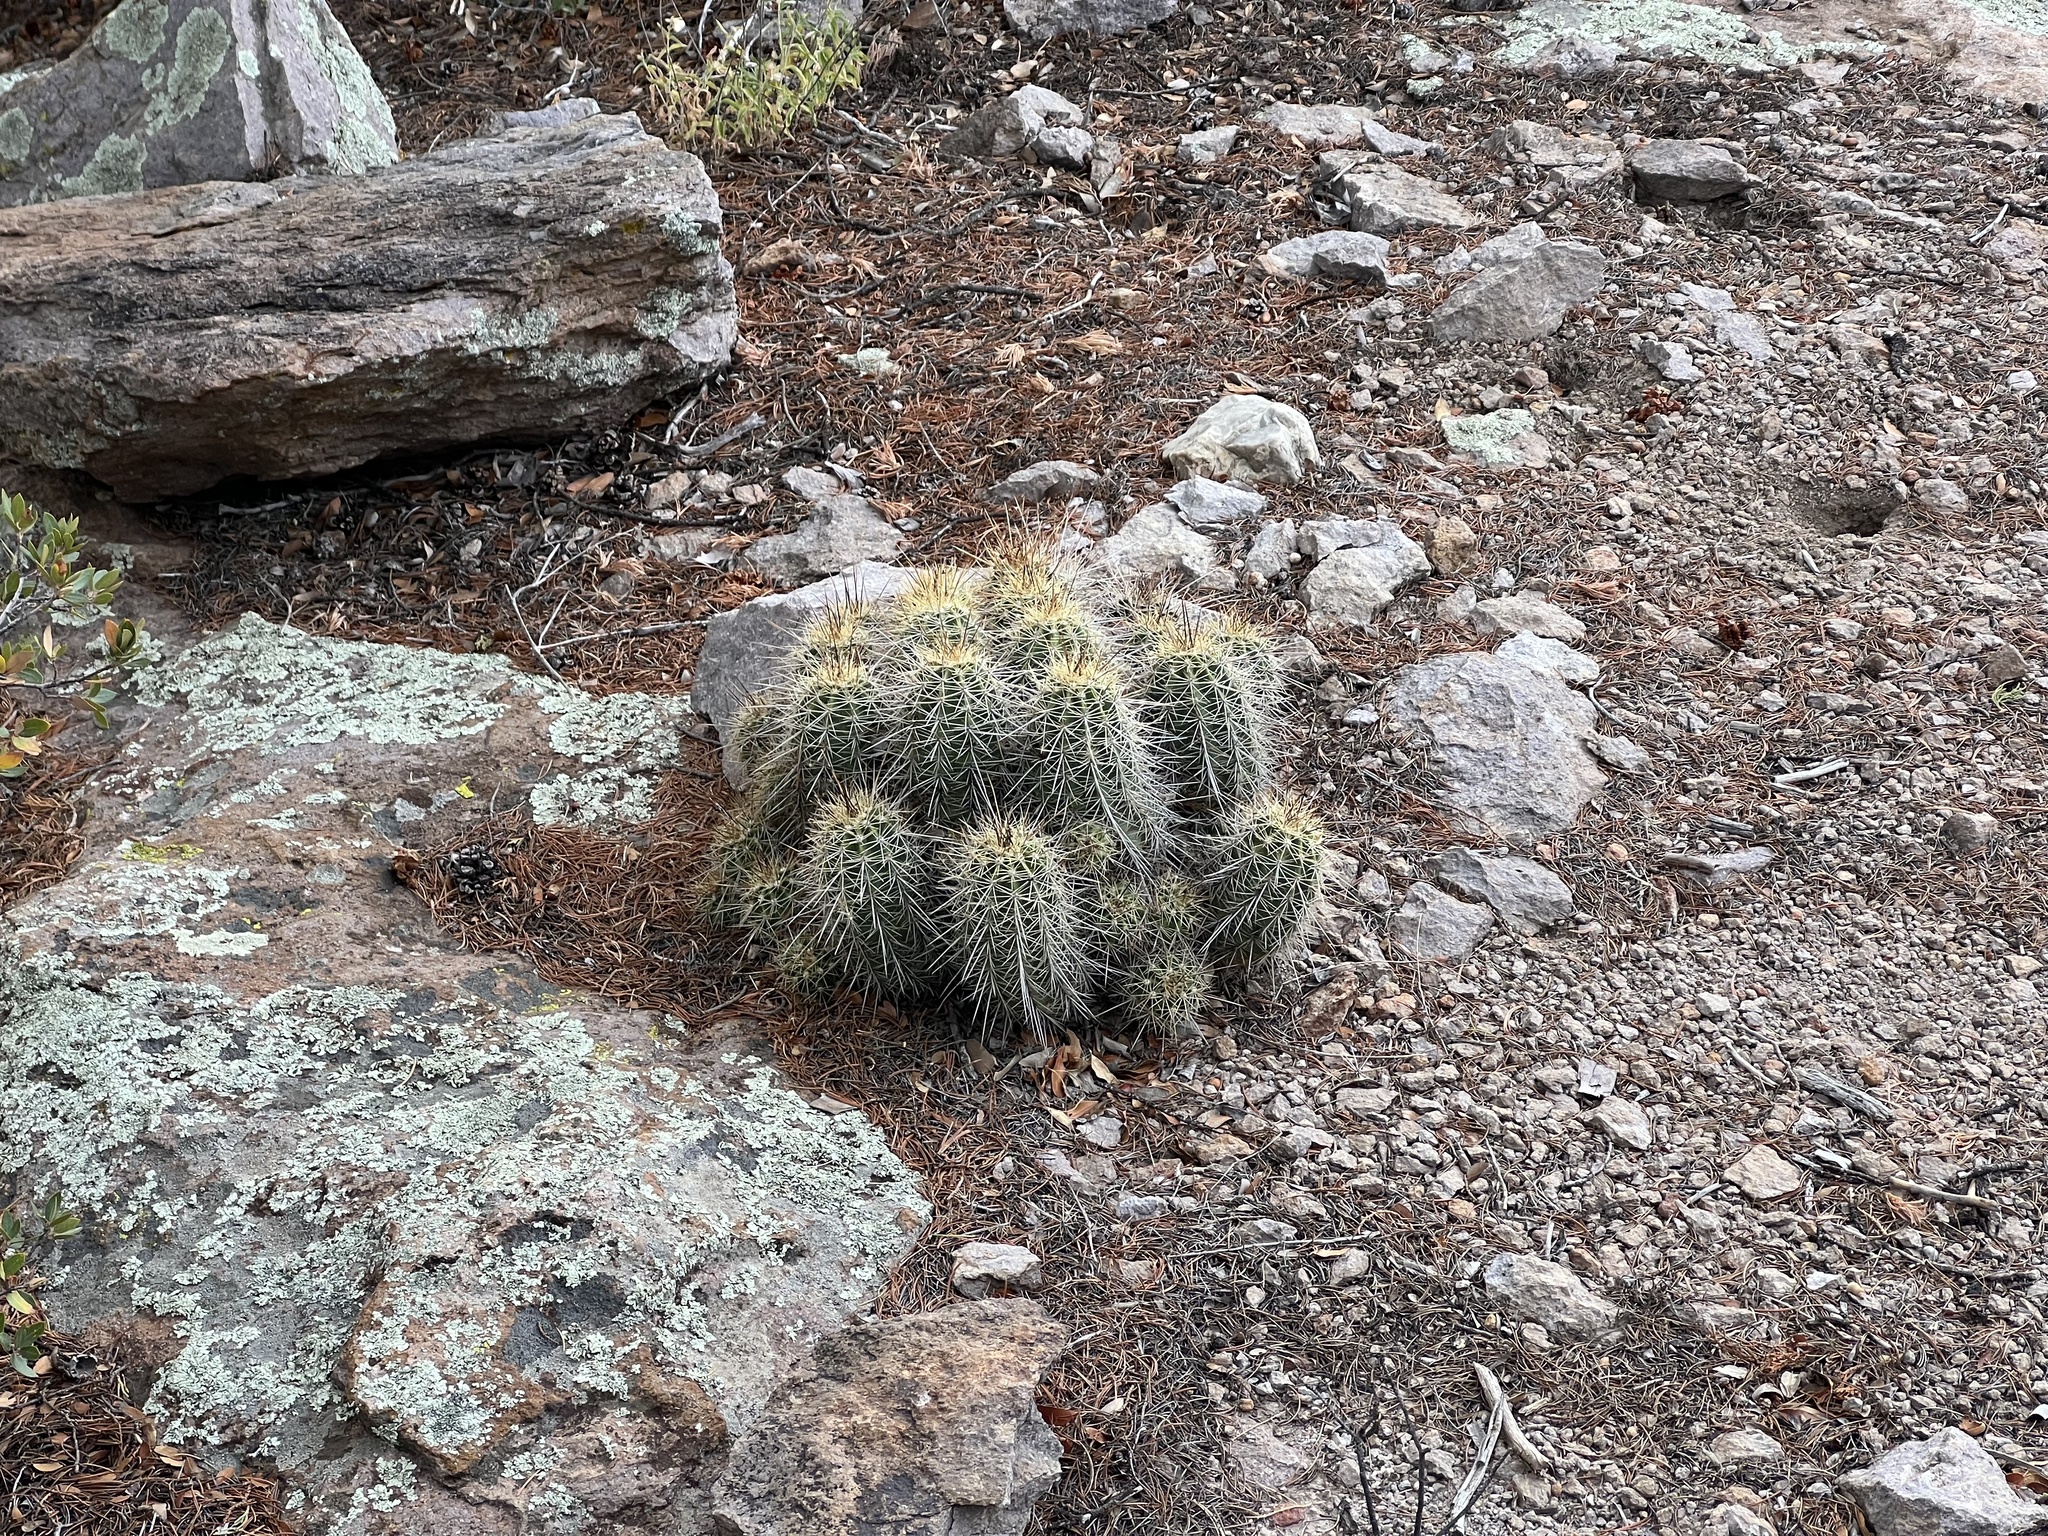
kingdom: Plantae
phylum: Tracheophyta
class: Magnoliopsida
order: Caryophyllales
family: Cactaceae
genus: Echinocereus
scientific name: Echinocereus coccineus
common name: Scarlet hedgehog cactus
